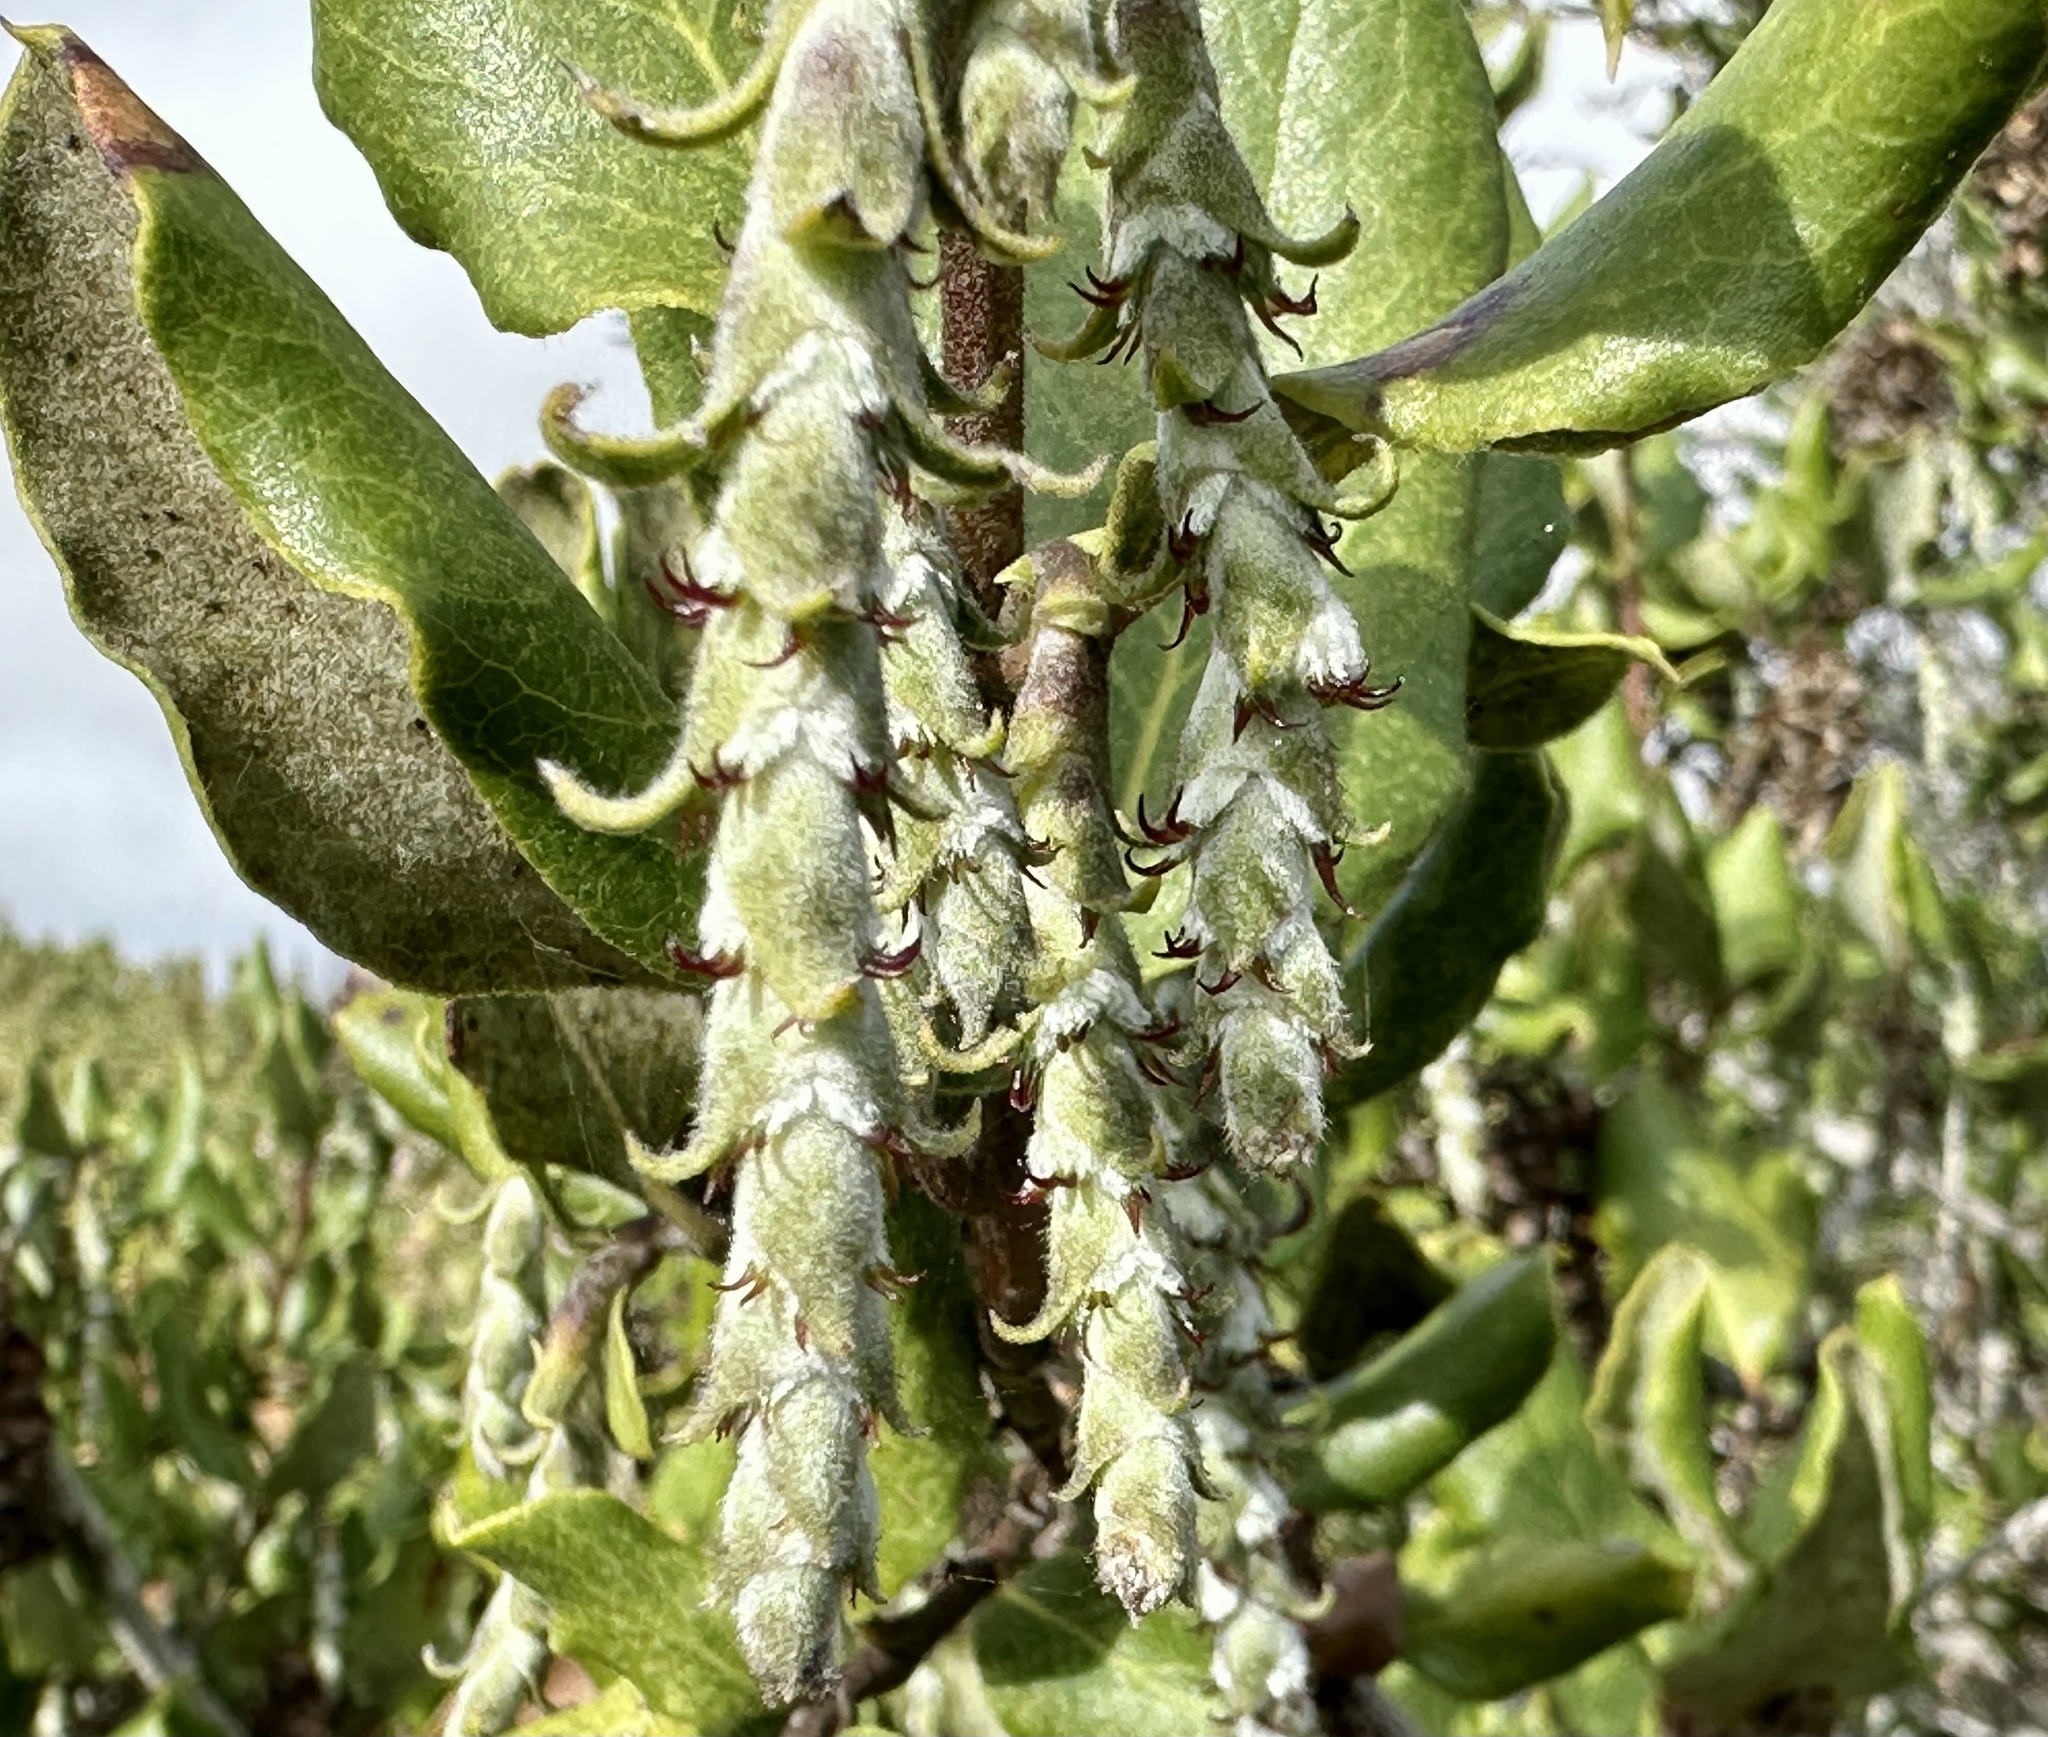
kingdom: Plantae
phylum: Tracheophyta
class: Magnoliopsida
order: Garryales
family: Garryaceae
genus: Garrya
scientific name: Garrya elliptica
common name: Silk-tassel
